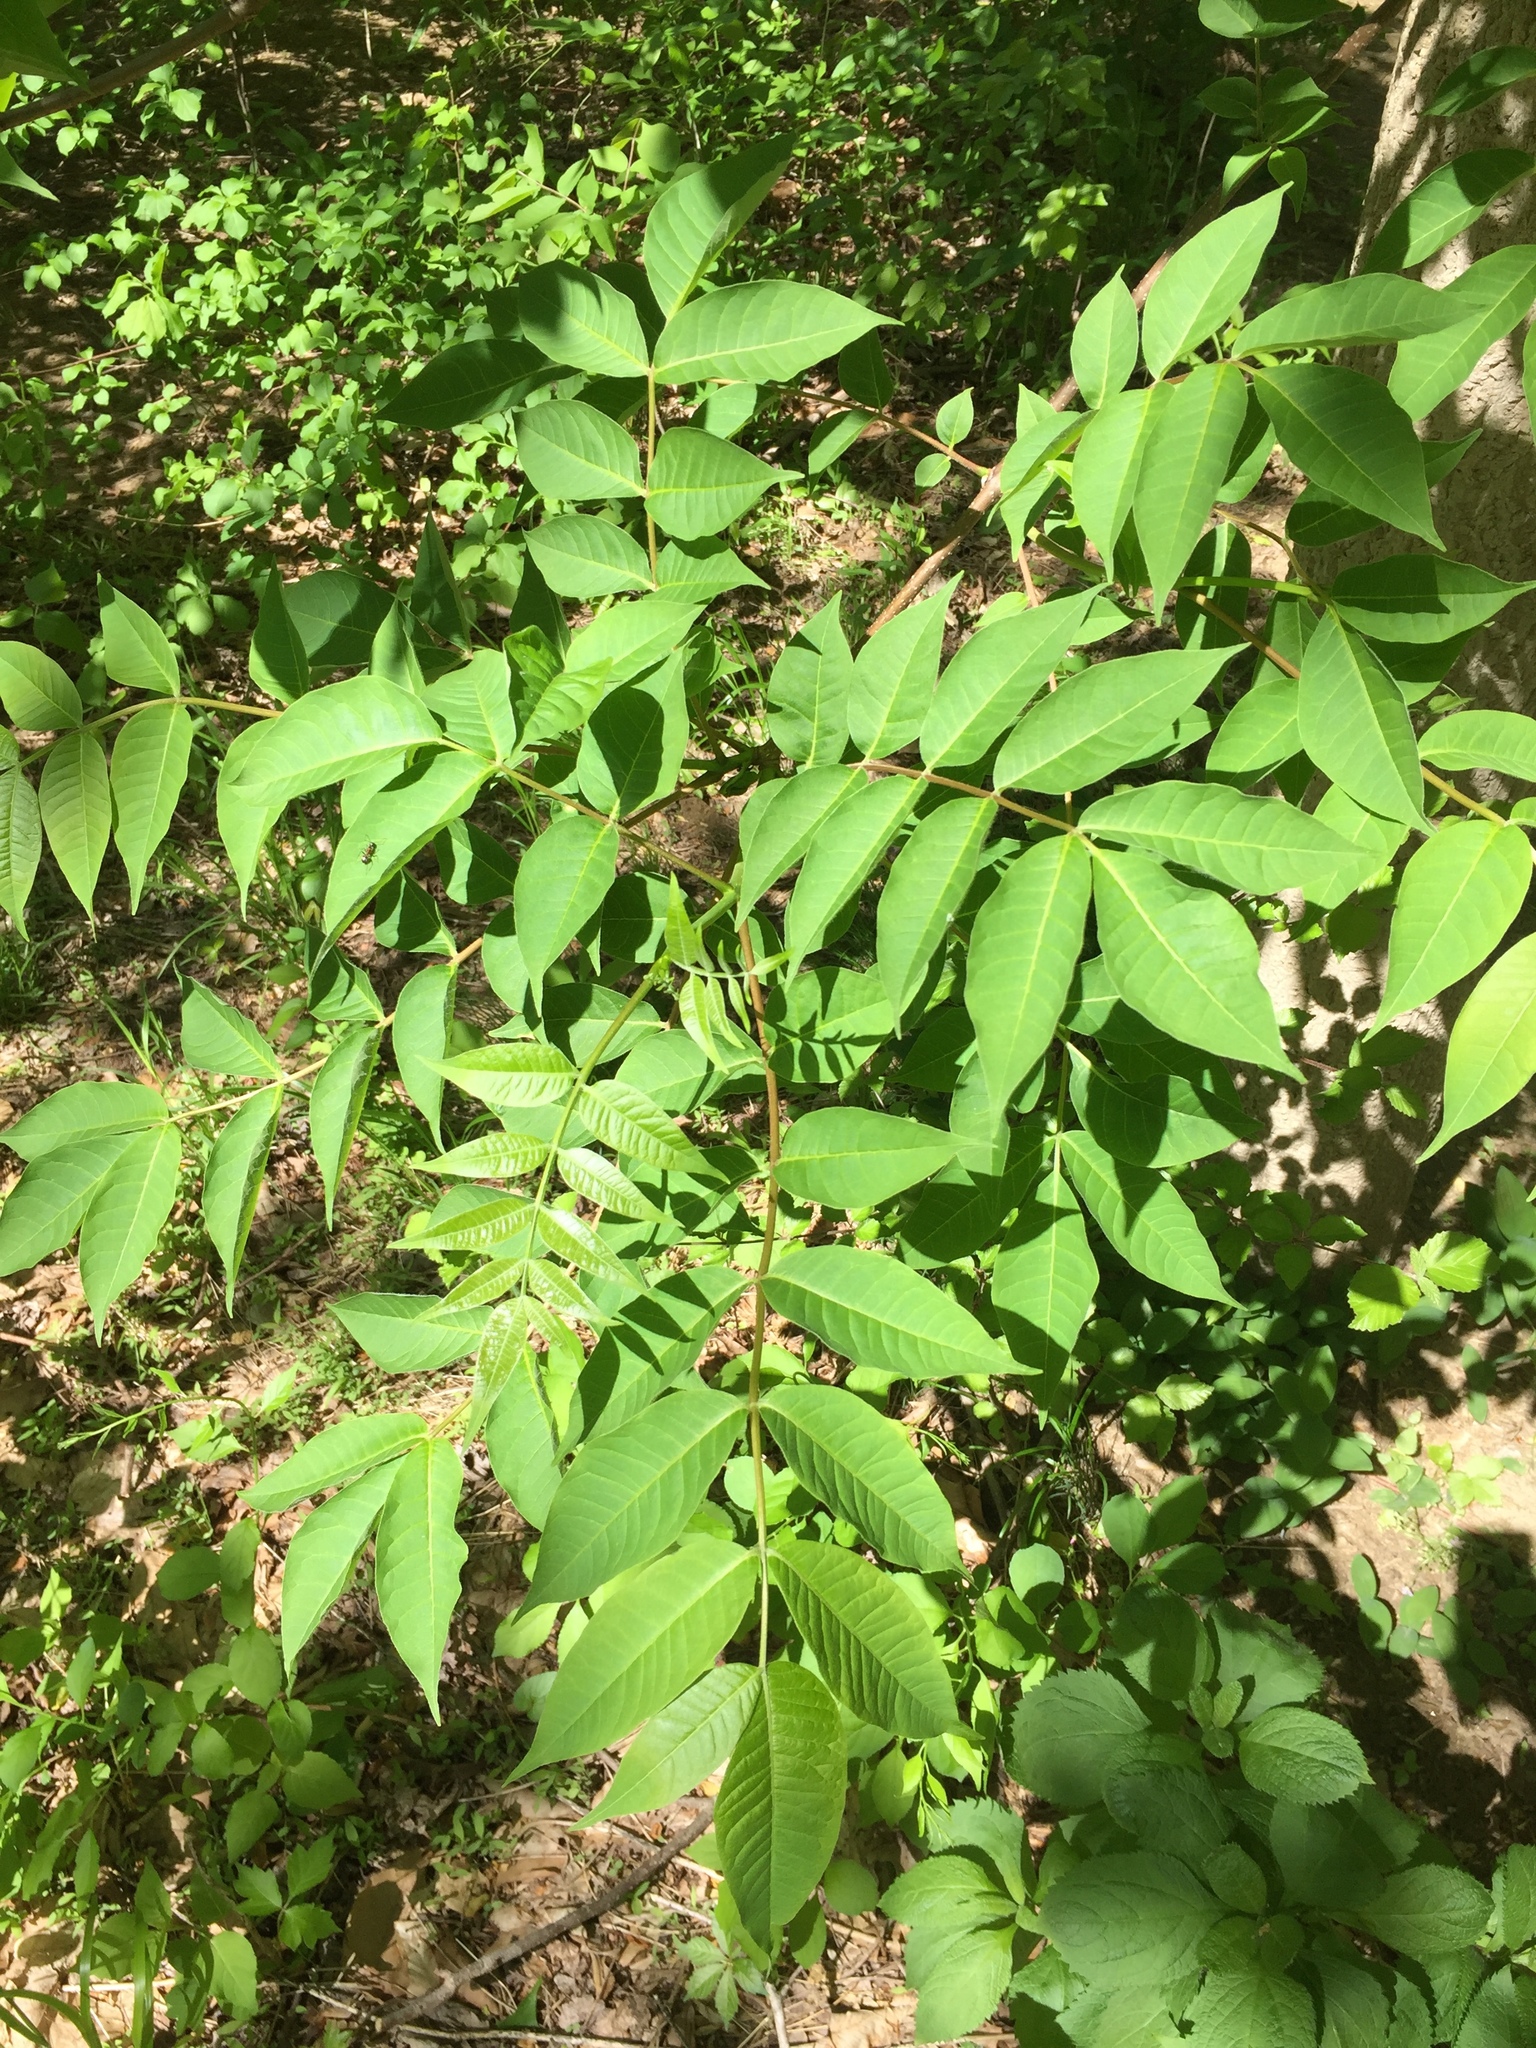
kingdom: Plantae
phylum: Tracheophyta
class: Magnoliopsida
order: Sapindales
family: Rutaceae
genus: Phellodendron
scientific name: Phellodendron amurense
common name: Amur corktree
